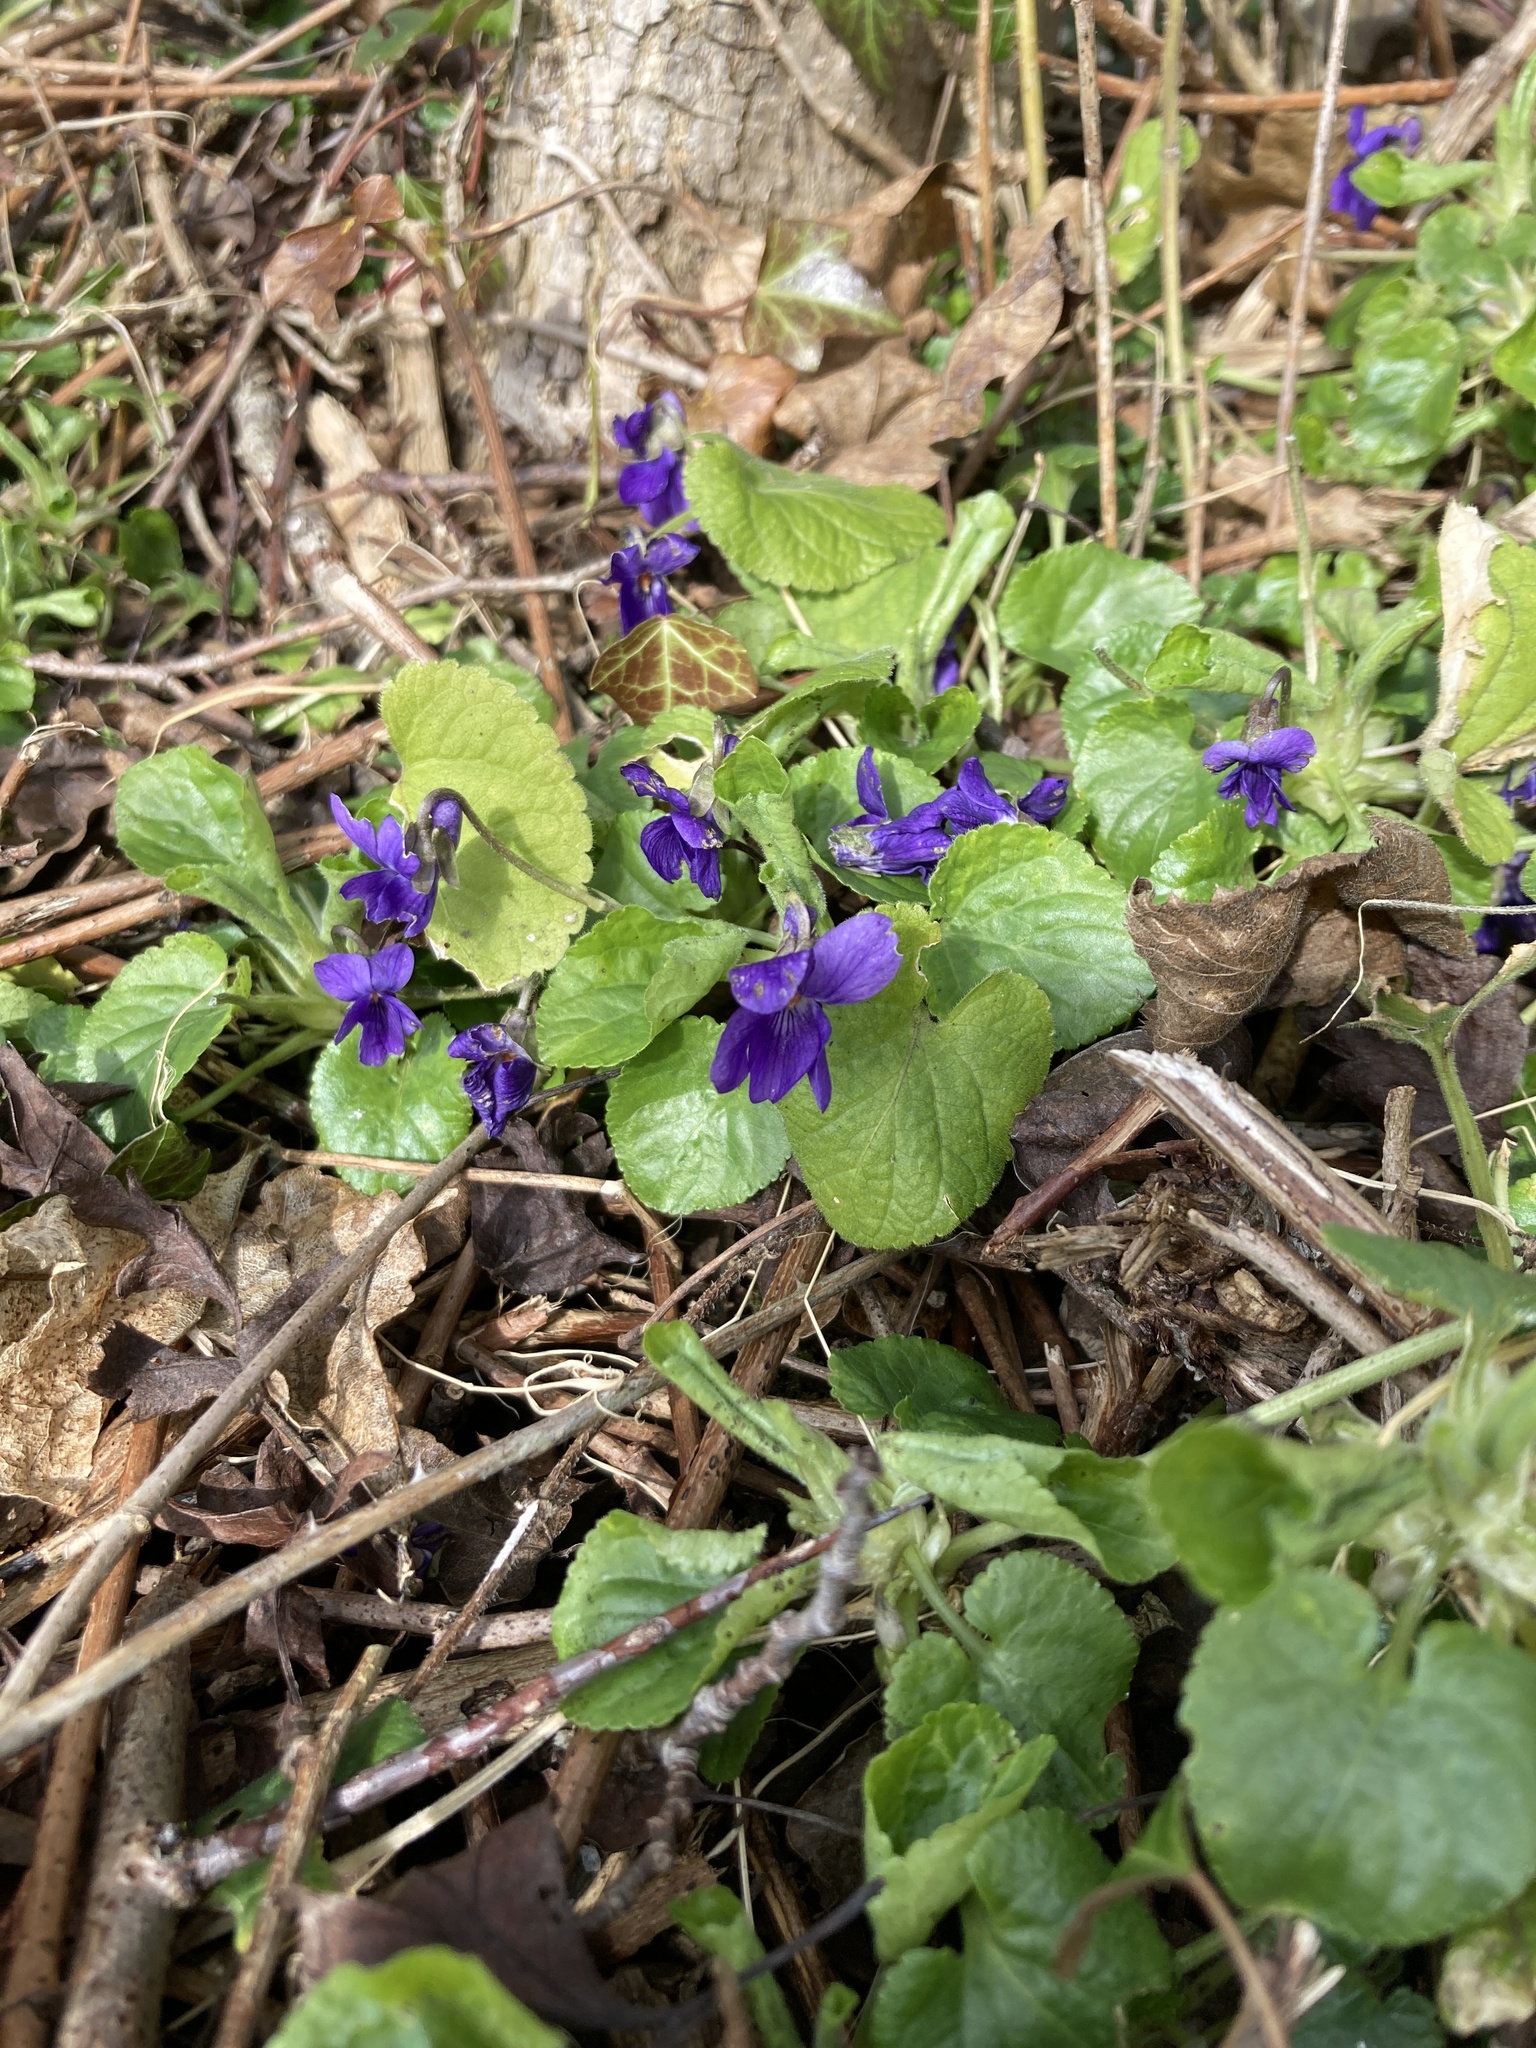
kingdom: Plantae
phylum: Tracheophyta
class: Magnoliopsida
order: Malpighiales
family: Violaceae
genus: Viola
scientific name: Viola odorata
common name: Sweet violet
